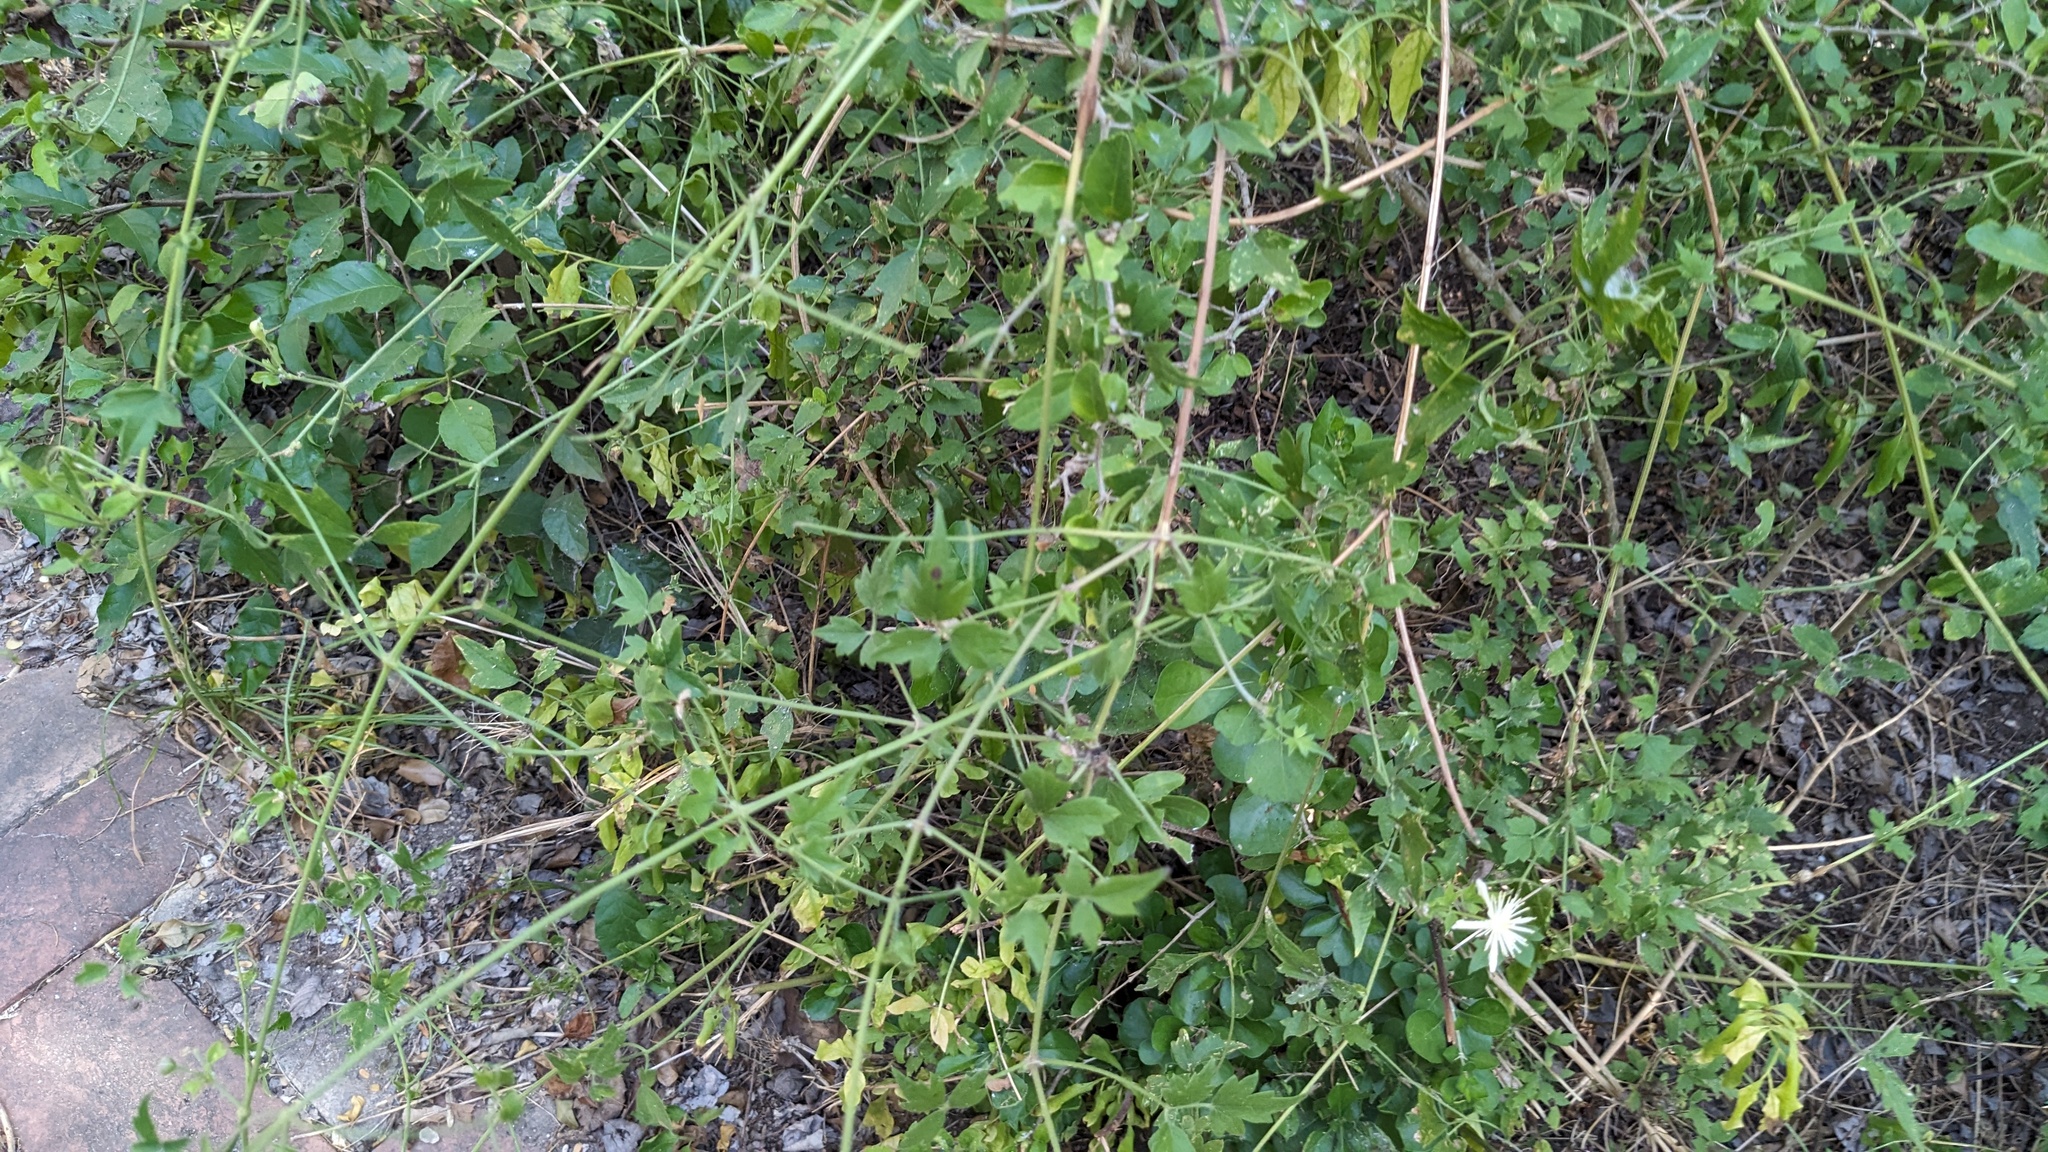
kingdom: Plantae
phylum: Tracheophyta
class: Magnoliopsida
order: Ranunculales
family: Ranunculaceae
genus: Clematis
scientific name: Clematis drummondii
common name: Texas virgin's bower
